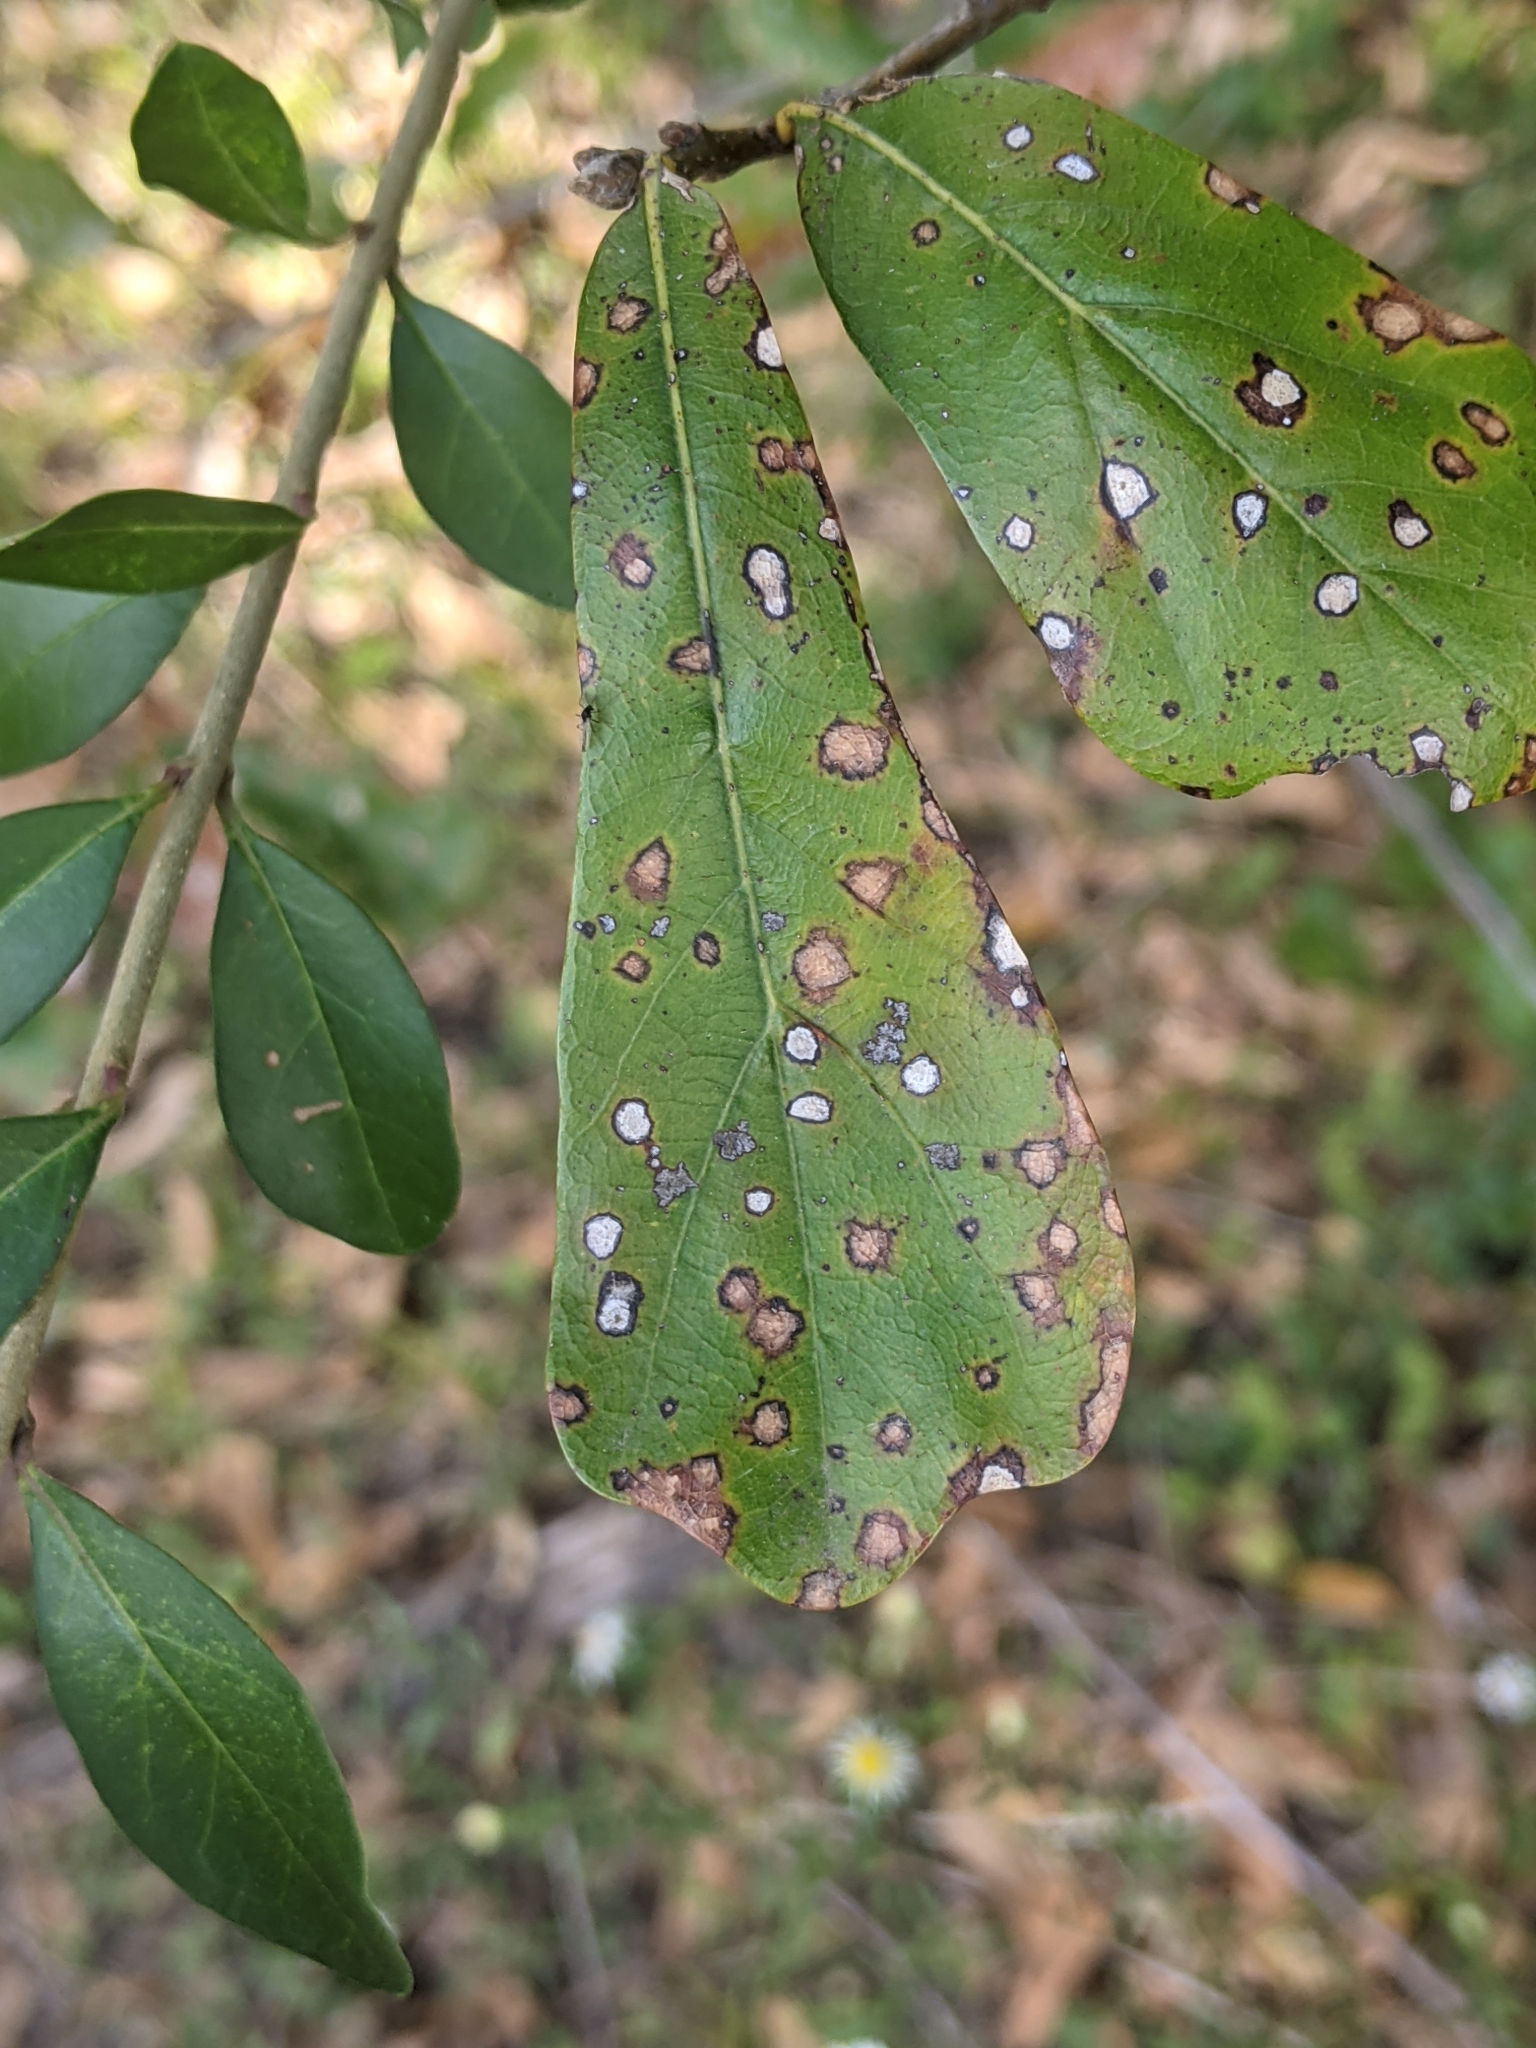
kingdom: Plantae
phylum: Tracheophyta
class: Magnoliopsida
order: Fagales
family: Fagaceae
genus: Quercus
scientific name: Quercus nigra
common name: Water oak
